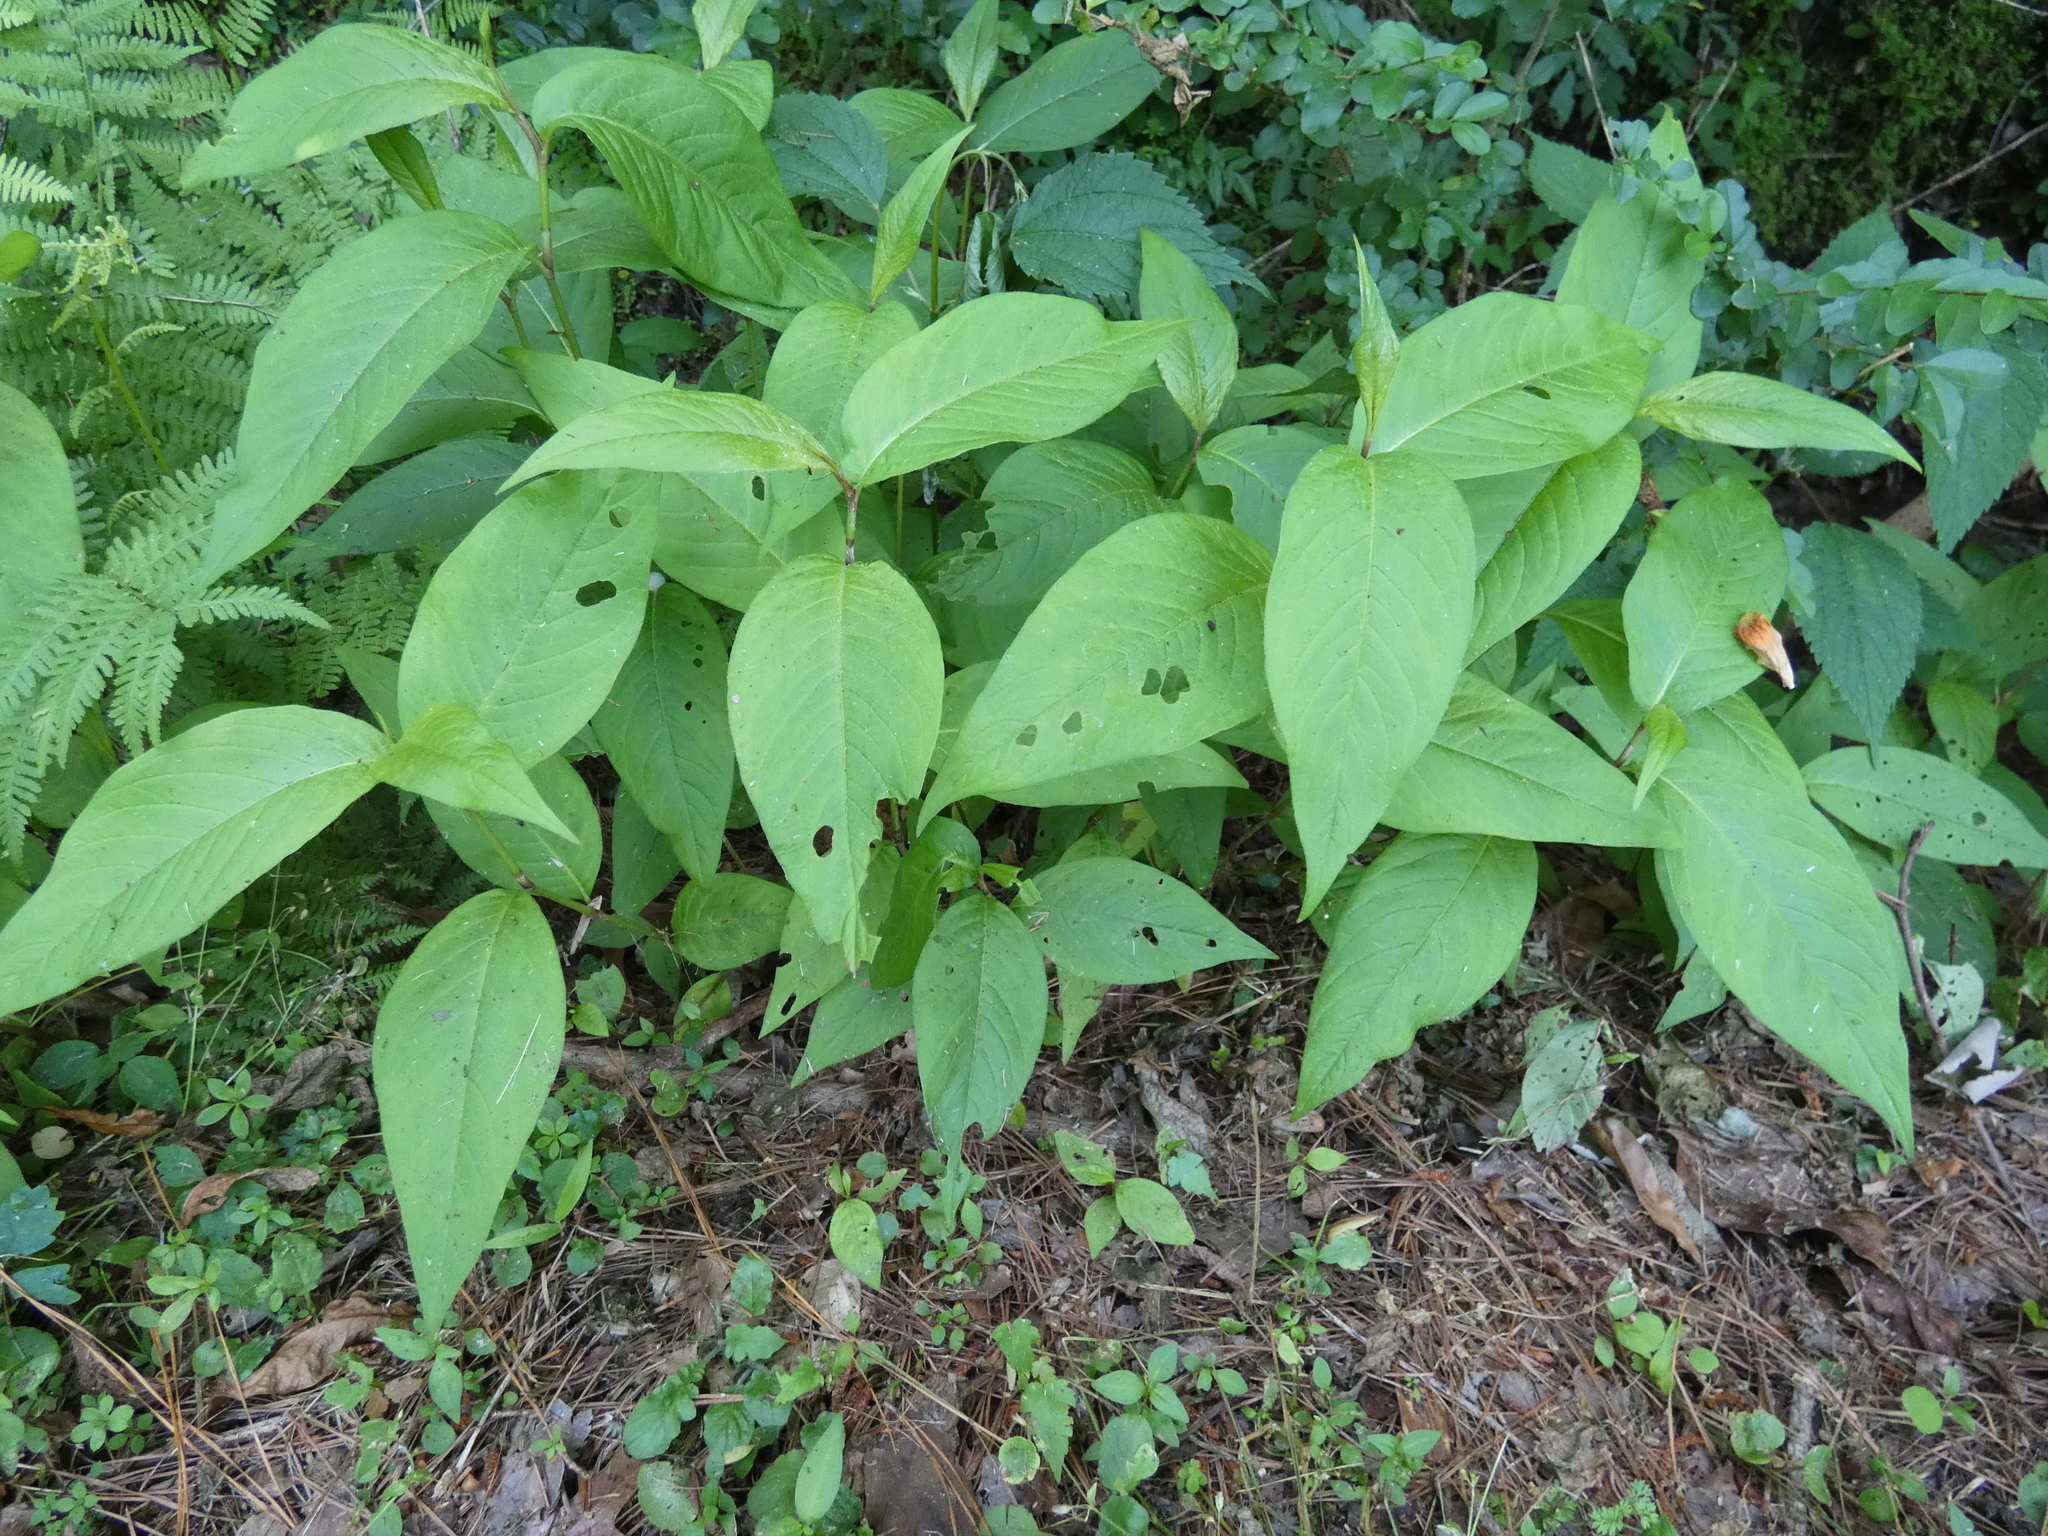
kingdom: Plantae
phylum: Tracheophyta
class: Magnoliopsida
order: Caryophyllales
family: Polygonaceae
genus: Persicaria
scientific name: Persicaria virginiana
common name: Jumpseed
